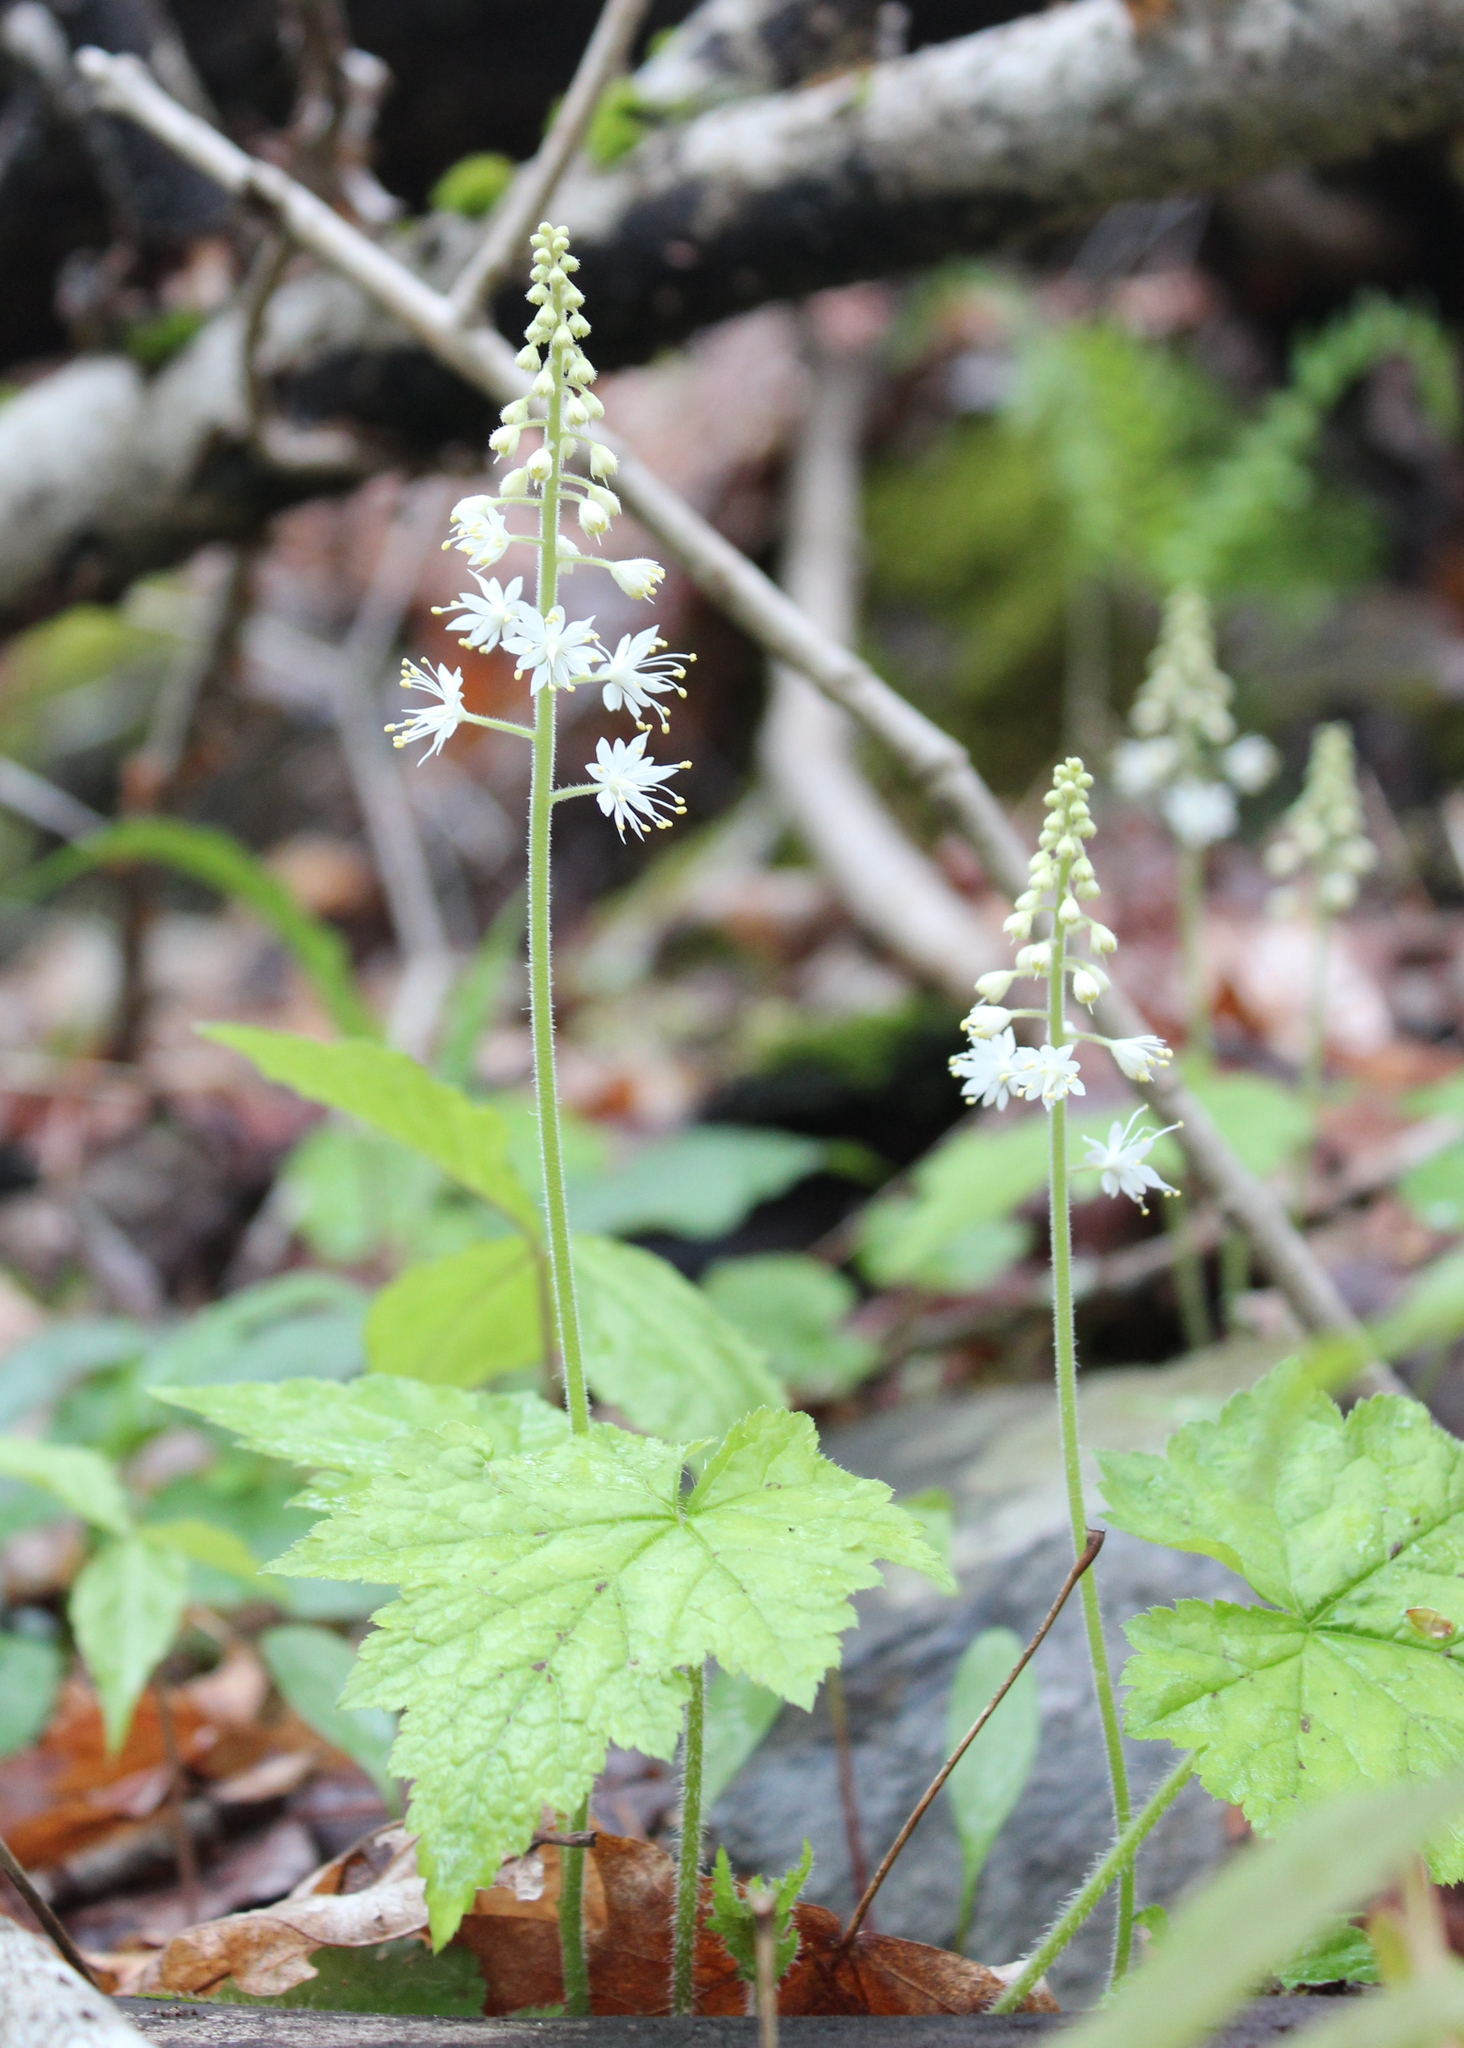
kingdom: Plantae
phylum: Tracheophyta
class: Magnoliopsida
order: Saxifragales
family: Saxifragaceae
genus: Tiarella
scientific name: Tiarella stolonifera
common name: Stoloniferous foamflower
